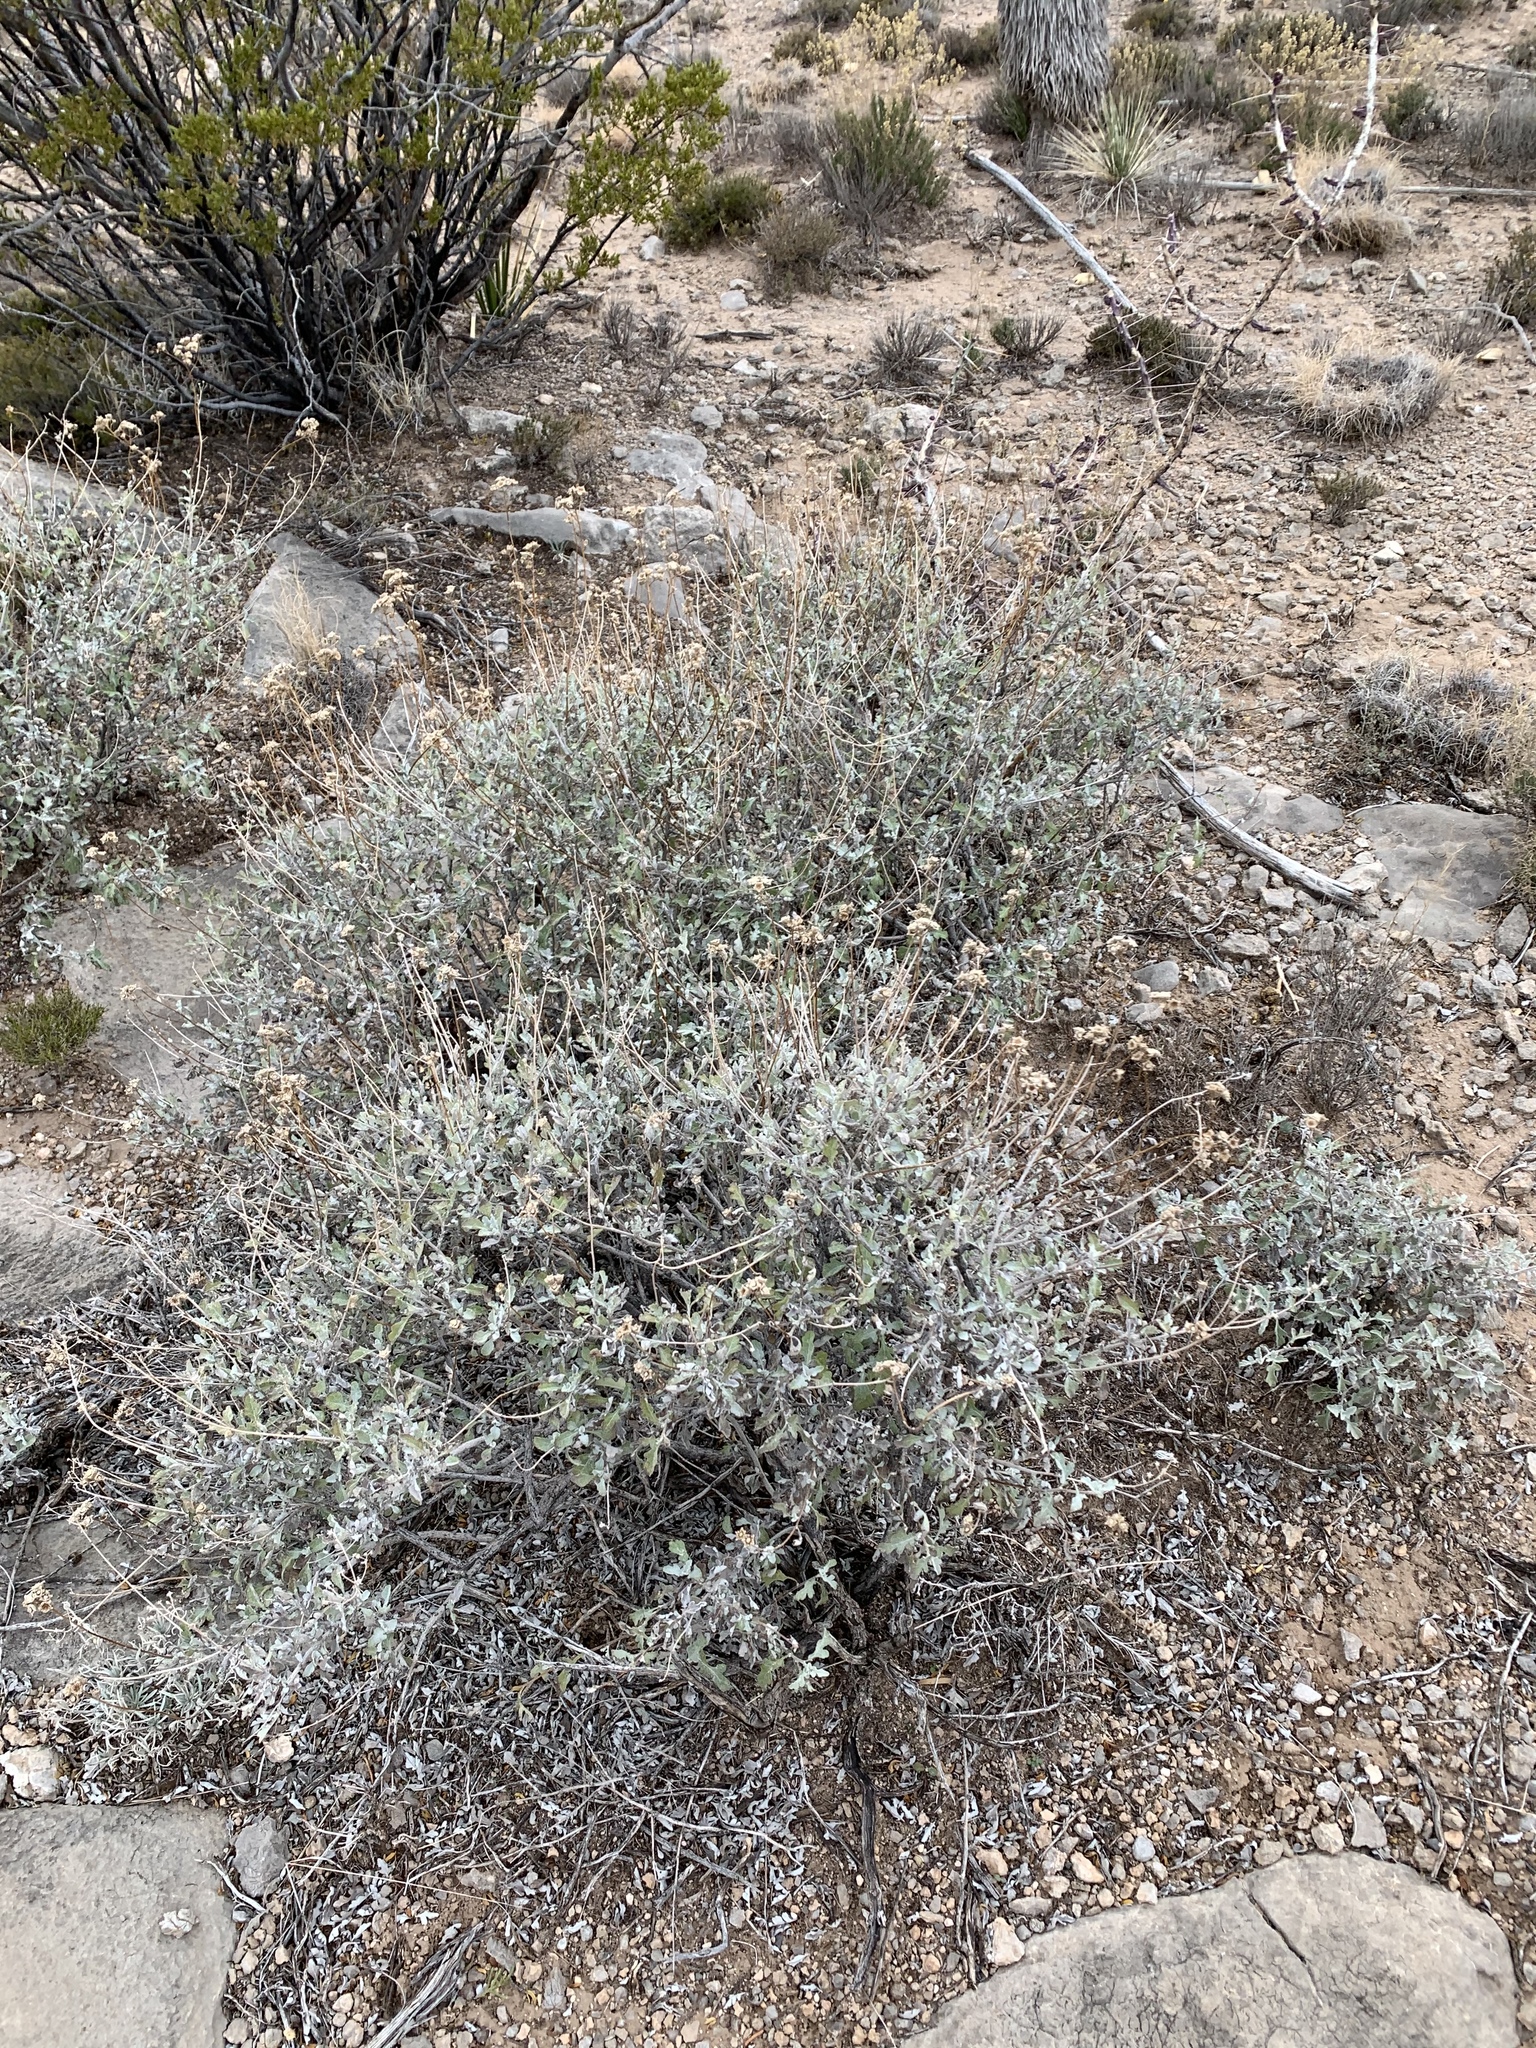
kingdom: Plantae
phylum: Tracheophyta
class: Magnoliopsida
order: Asterales
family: Asteraceae
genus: Parthenium
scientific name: Parthenium incanum
